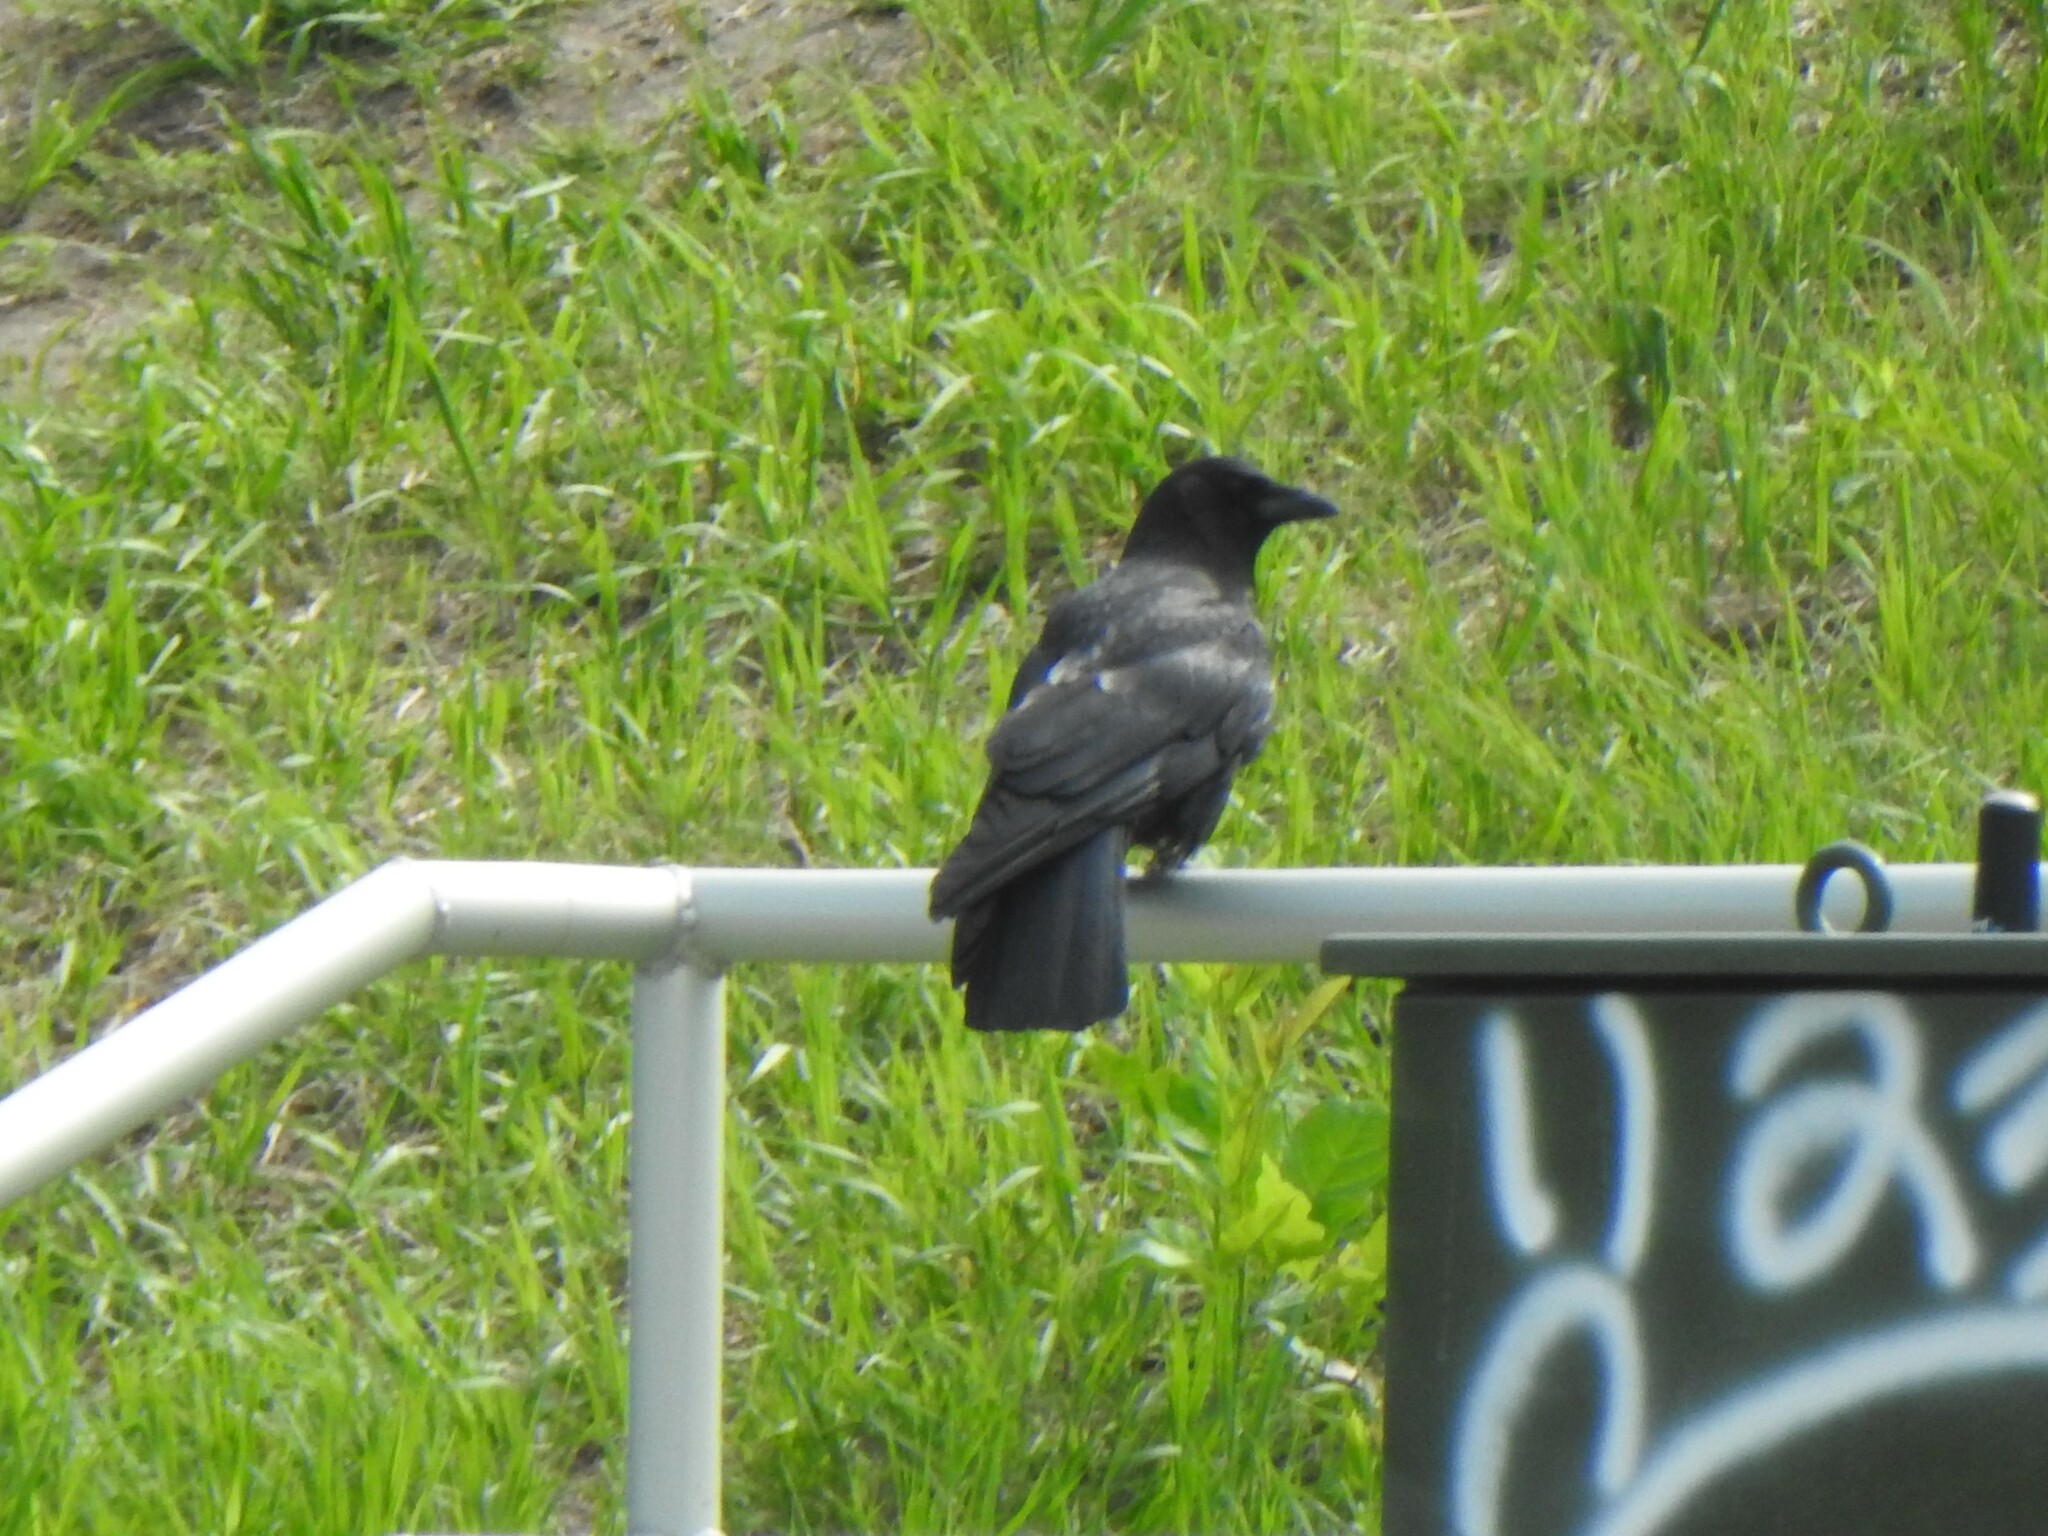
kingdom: Animalia
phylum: Chordata
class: Aves
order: Passeriformes
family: Corvidae
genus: Corvus
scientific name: Corvus brachyrhynchos
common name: American crow
